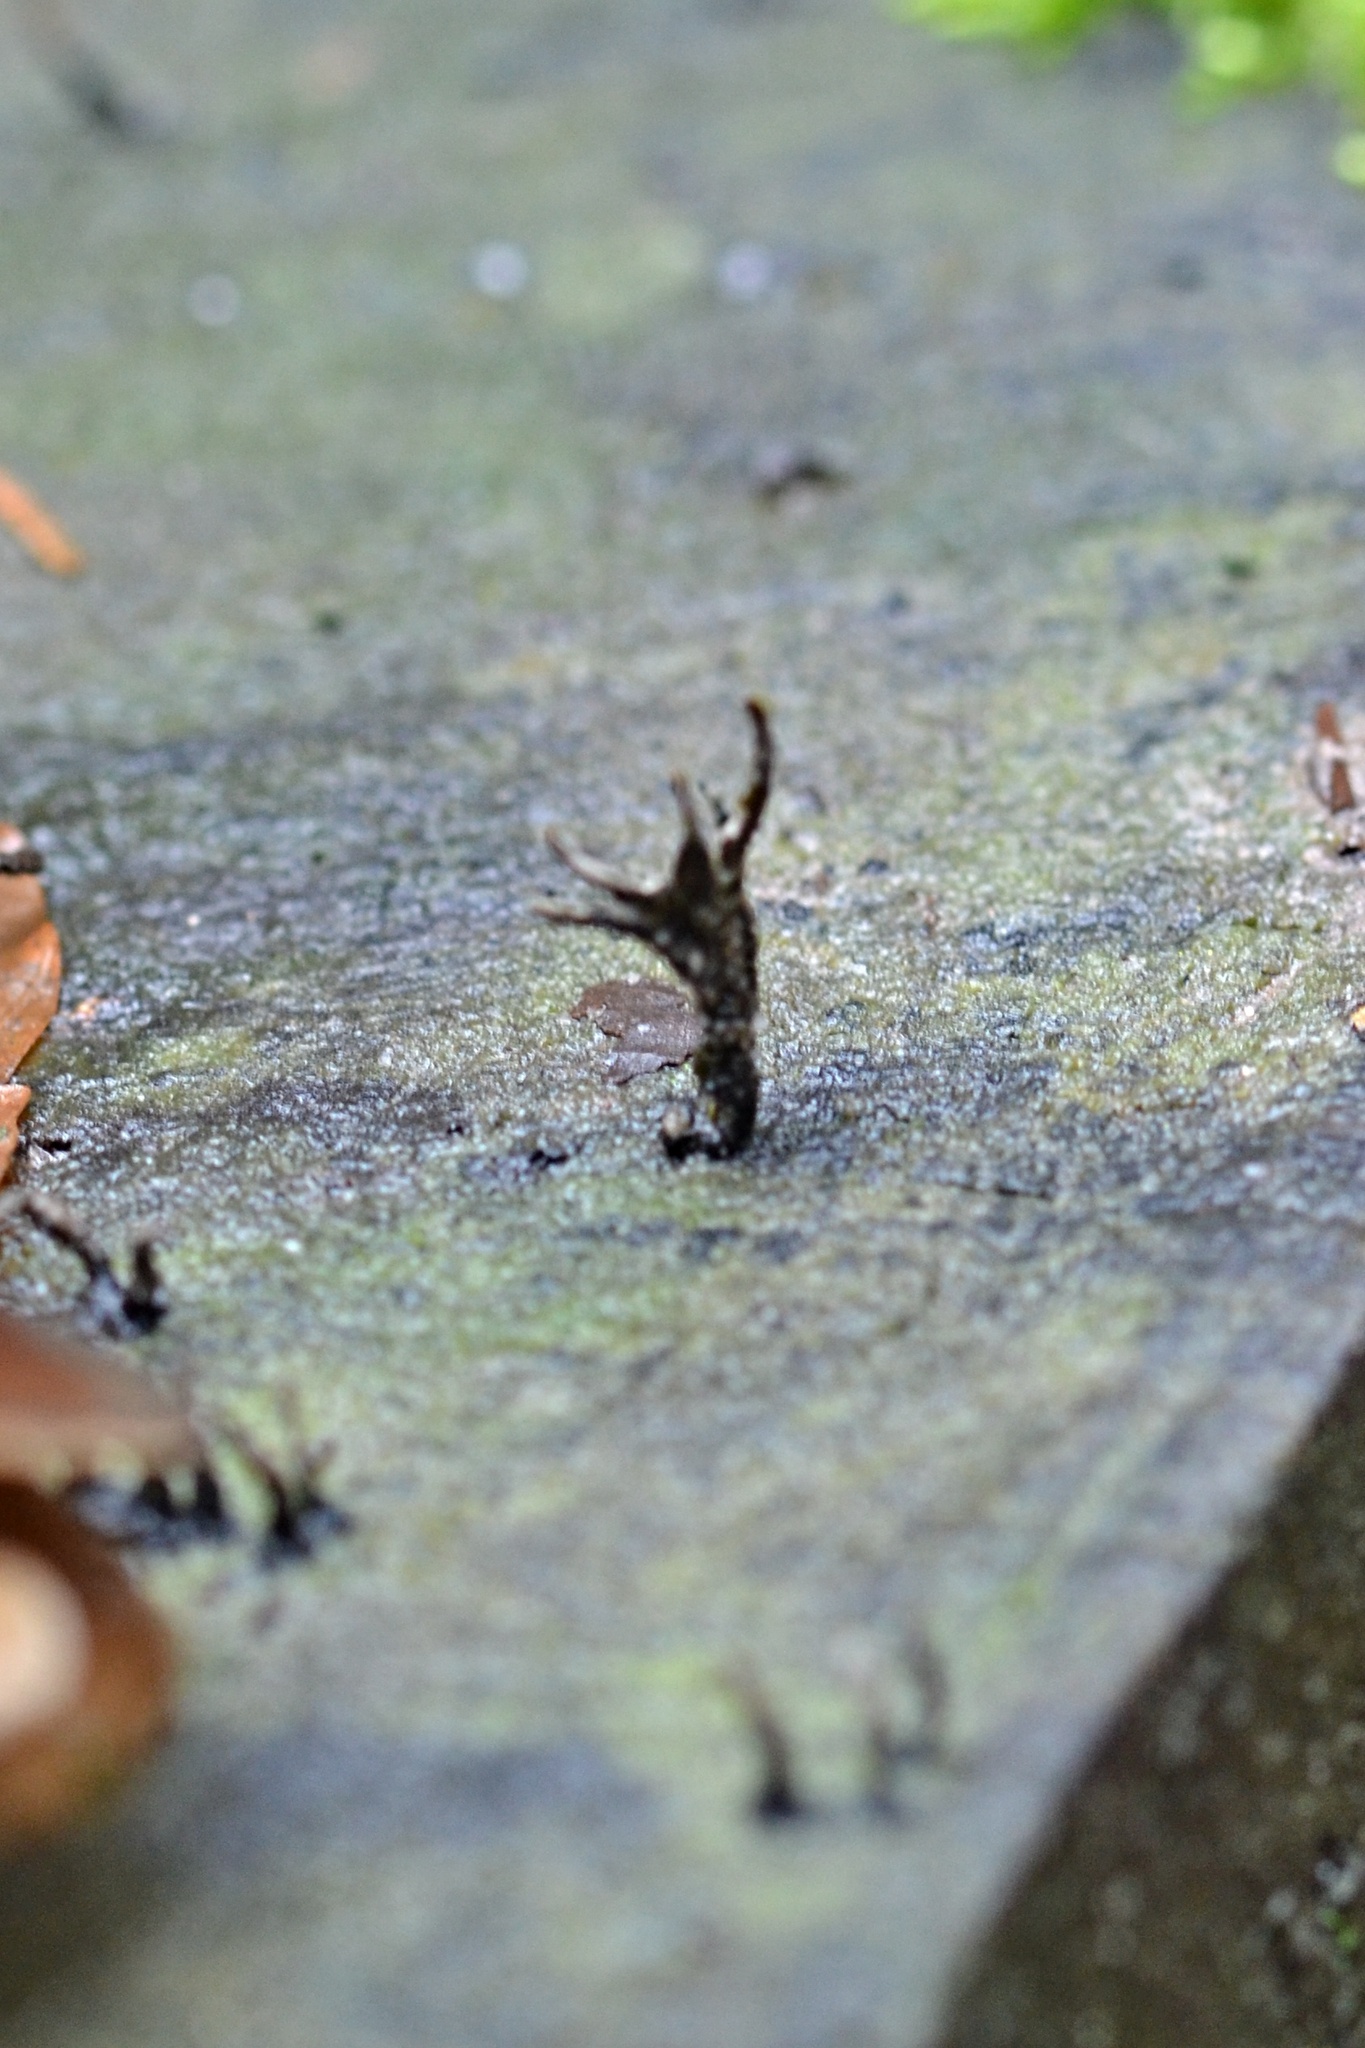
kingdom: Fungi
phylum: Ascomycota
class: Sordariomycetes
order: Xylariales
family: Xylariaceae
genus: Xylaria
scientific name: Xylaria hypoxylon
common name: Candle-snuff fungus
